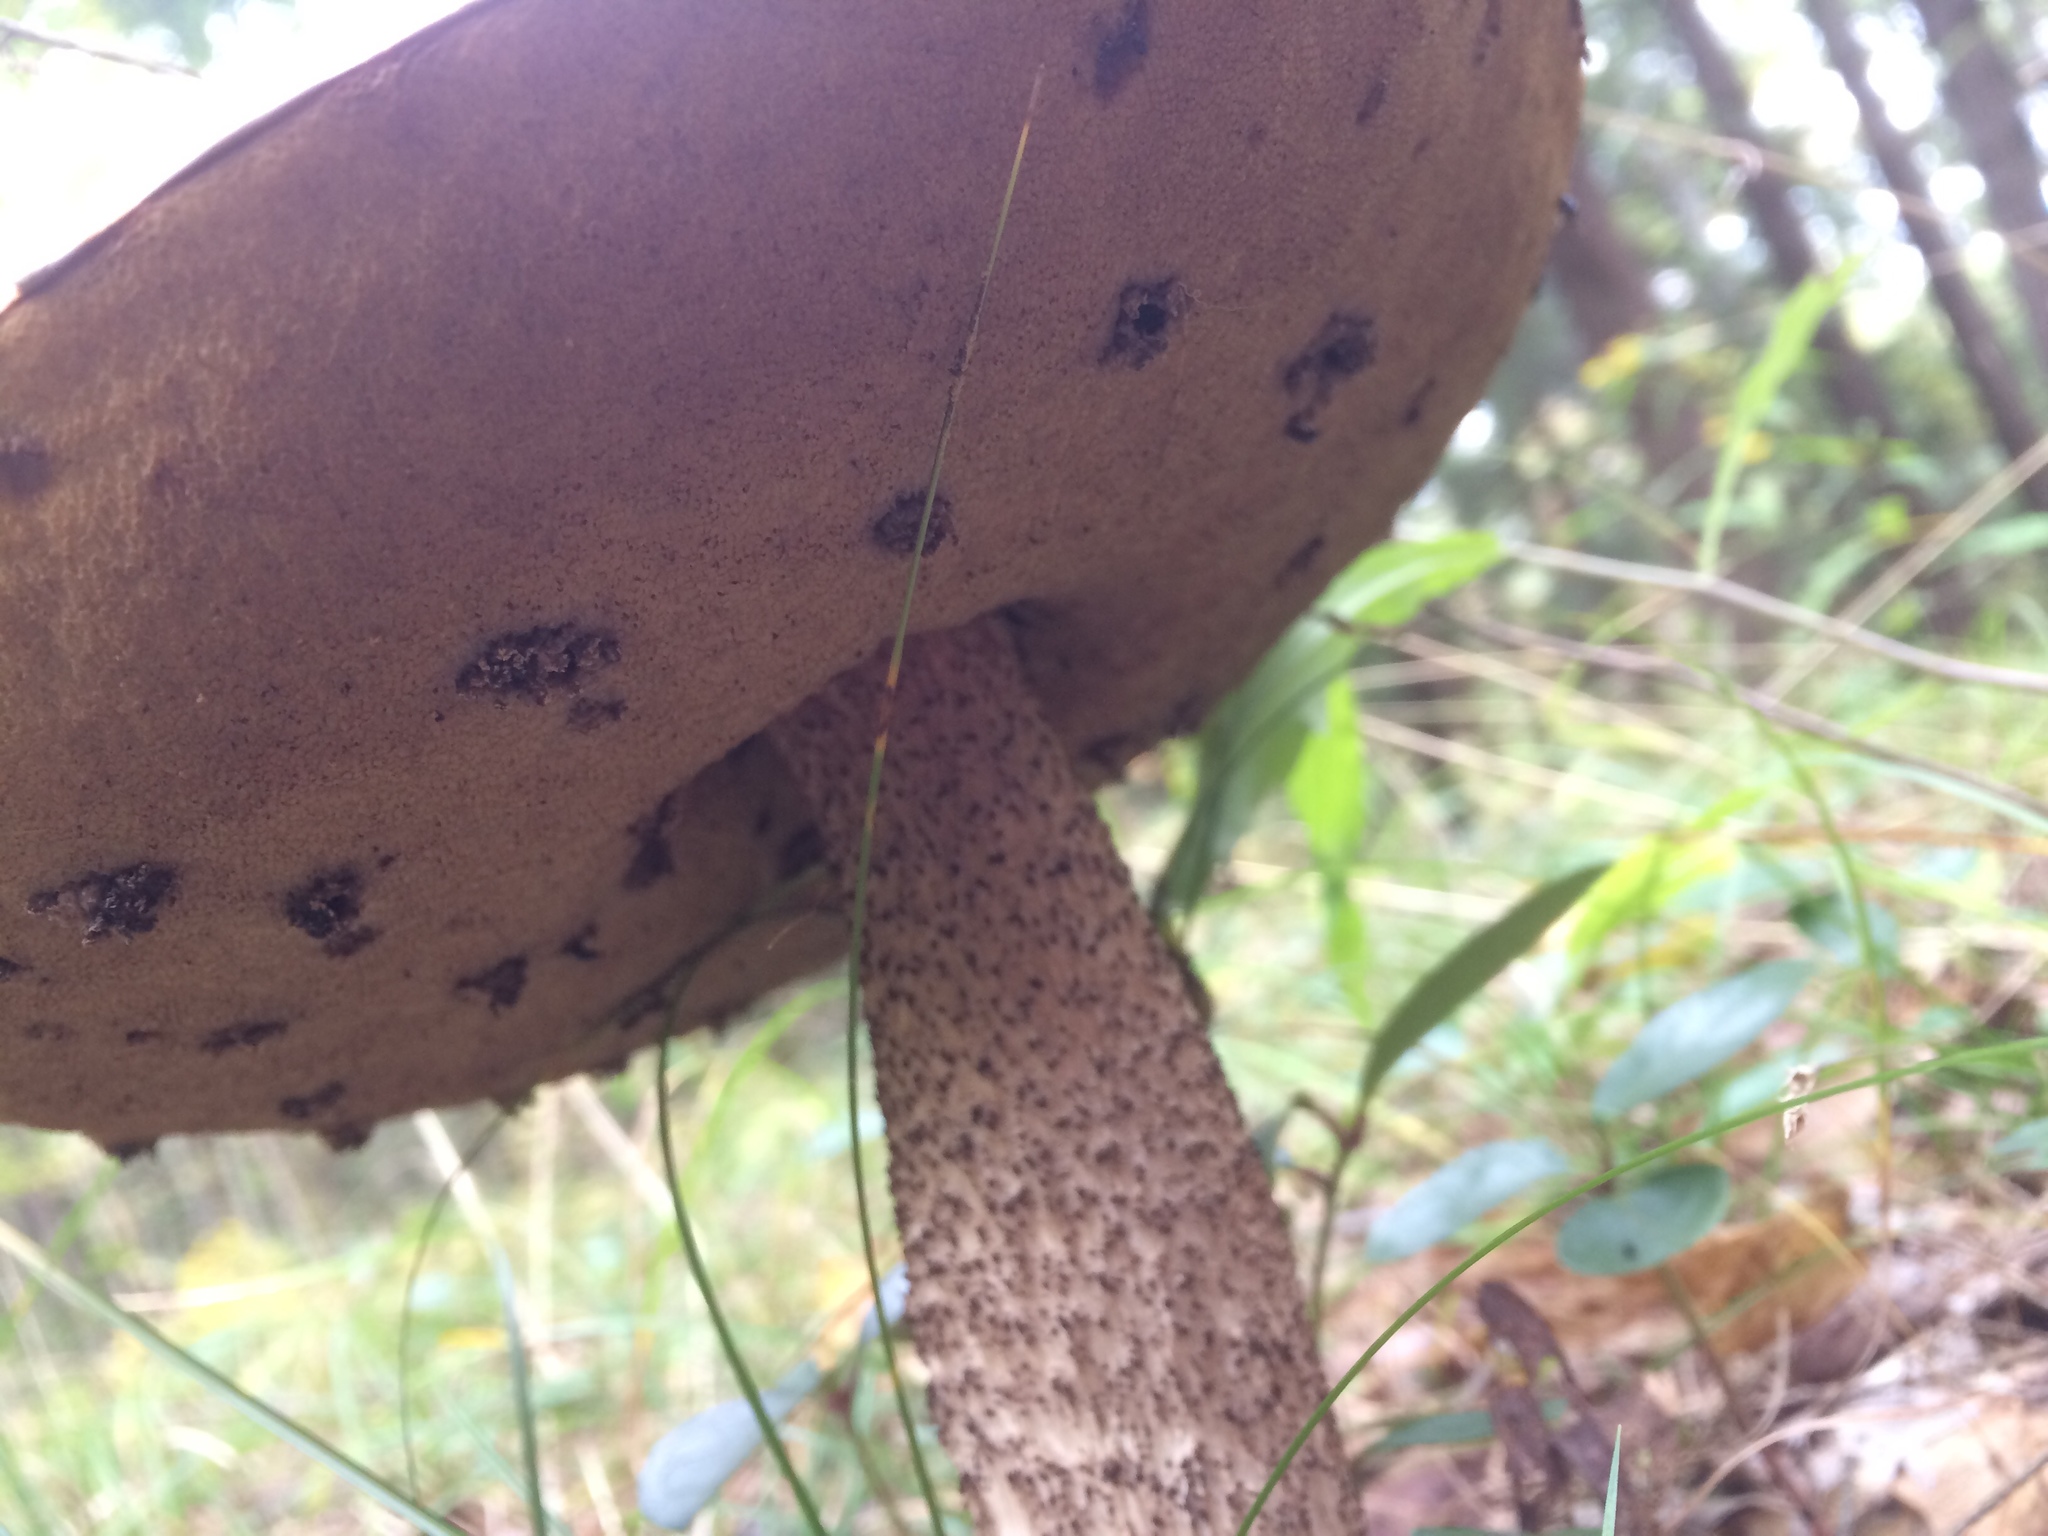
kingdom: Fungi
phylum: Basidiomycota
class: Agaricomycetes
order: Boletales
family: Boletaceae
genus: Leccinum
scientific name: Leccinum aurantiacum
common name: Orange bolete
